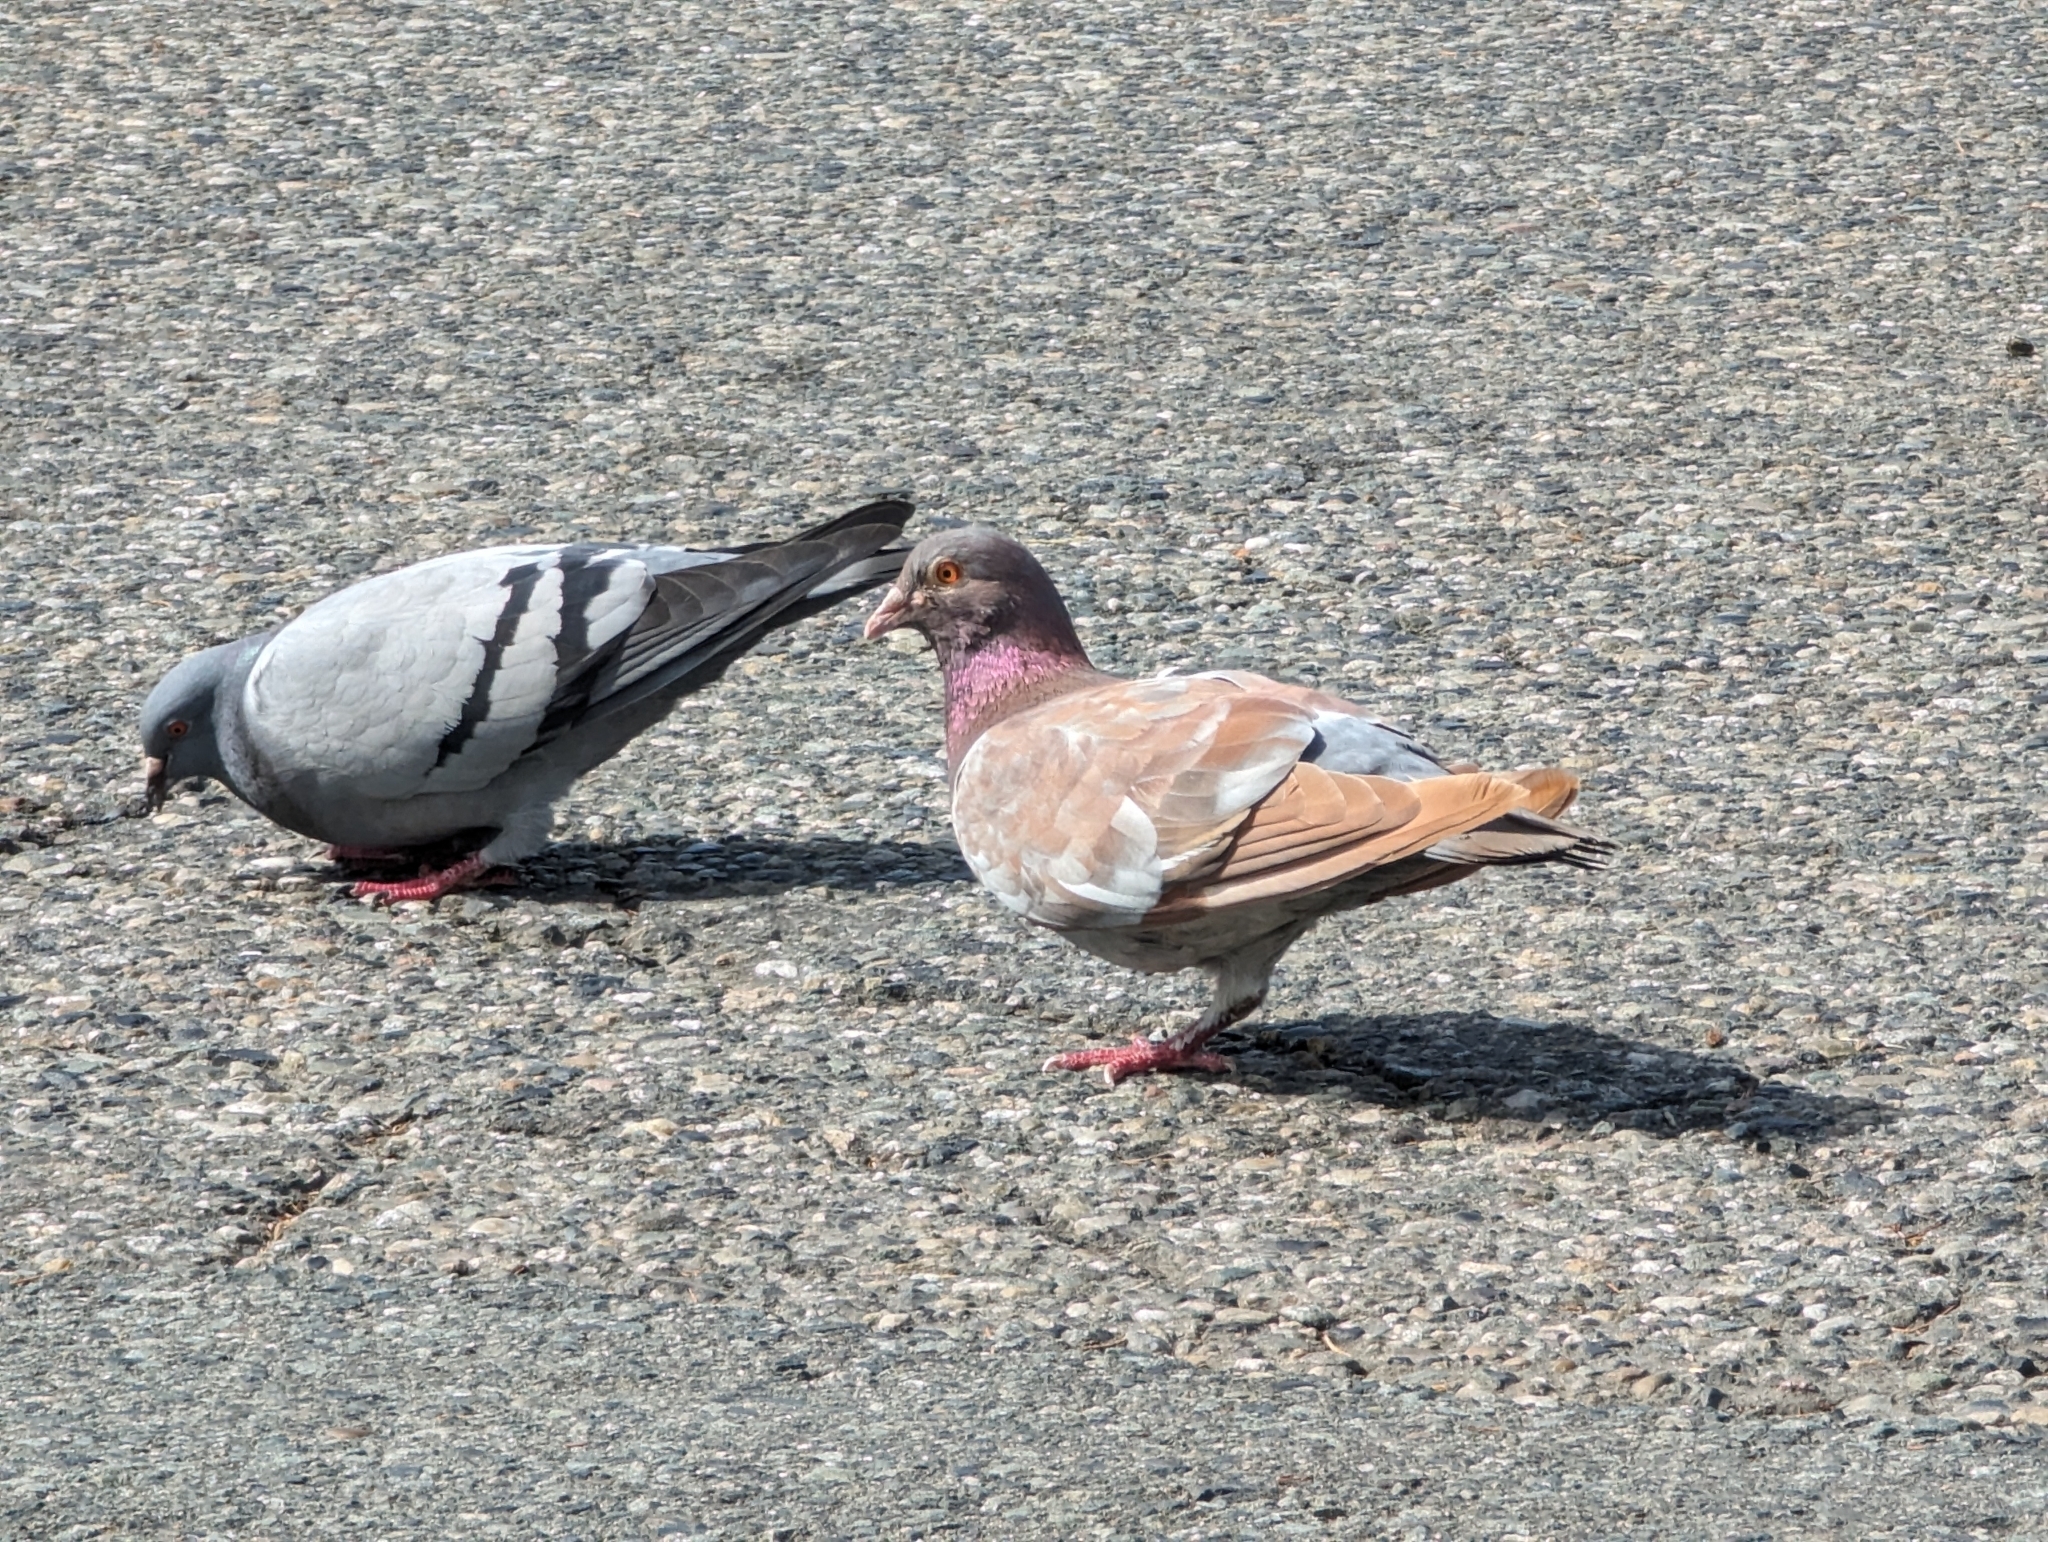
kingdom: Animalia
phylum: Chordata
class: Aves
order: Columbiformes
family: Columbidae
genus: Columba
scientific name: Columba livia
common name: Rock pigeon
